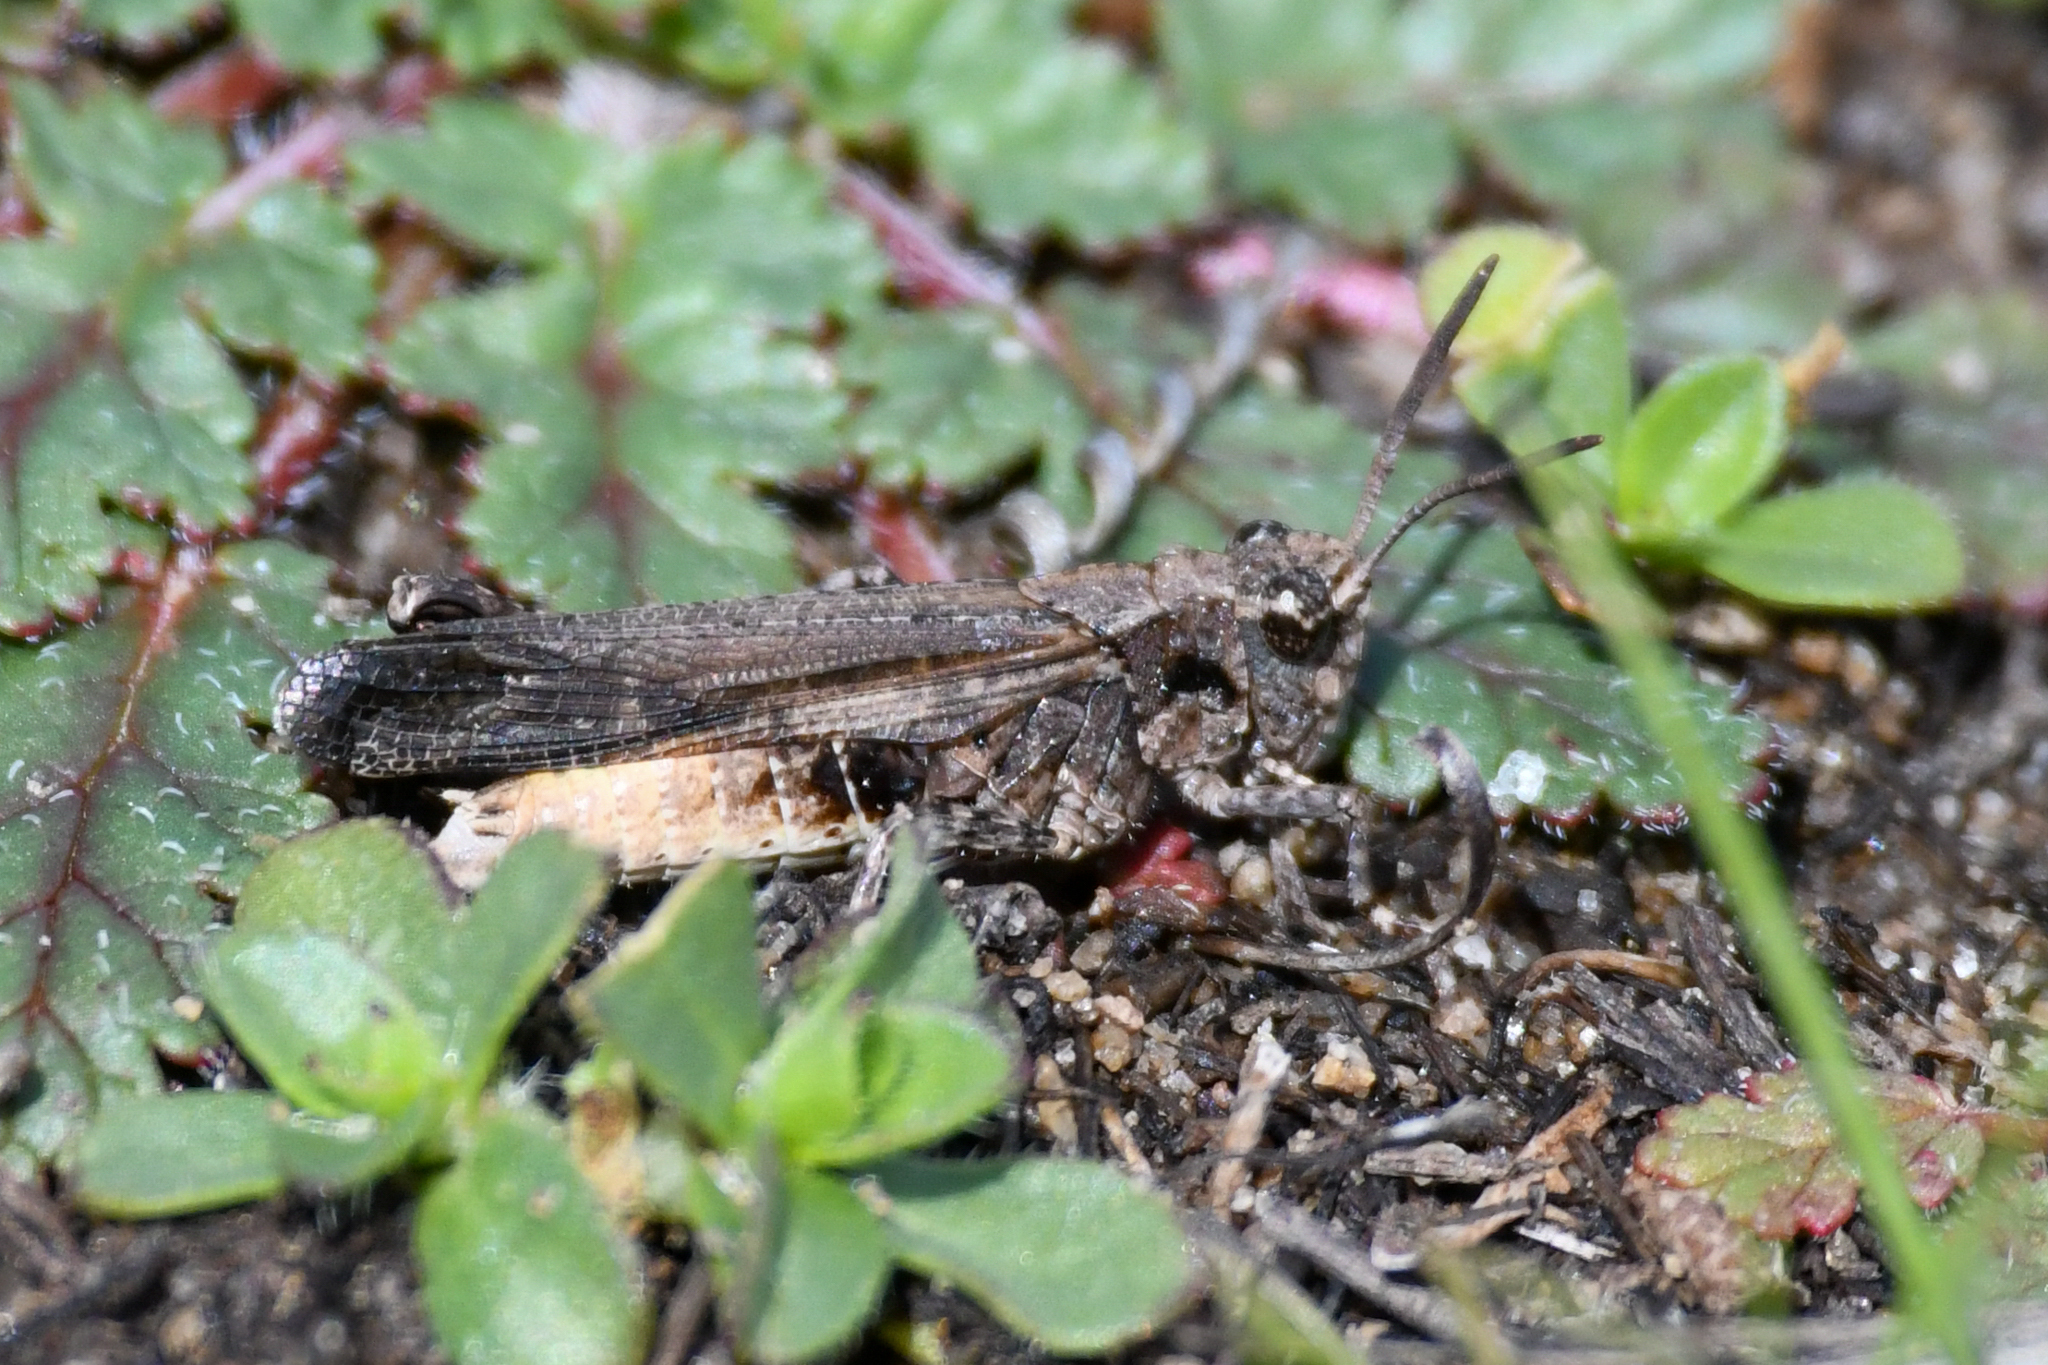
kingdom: Animalia
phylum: Arthropoda
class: Insecta
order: Orthoptera
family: Acrididae
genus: Chimarocephala
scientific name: Chimarocephala pacifica
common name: Painted meadow grasshopper
